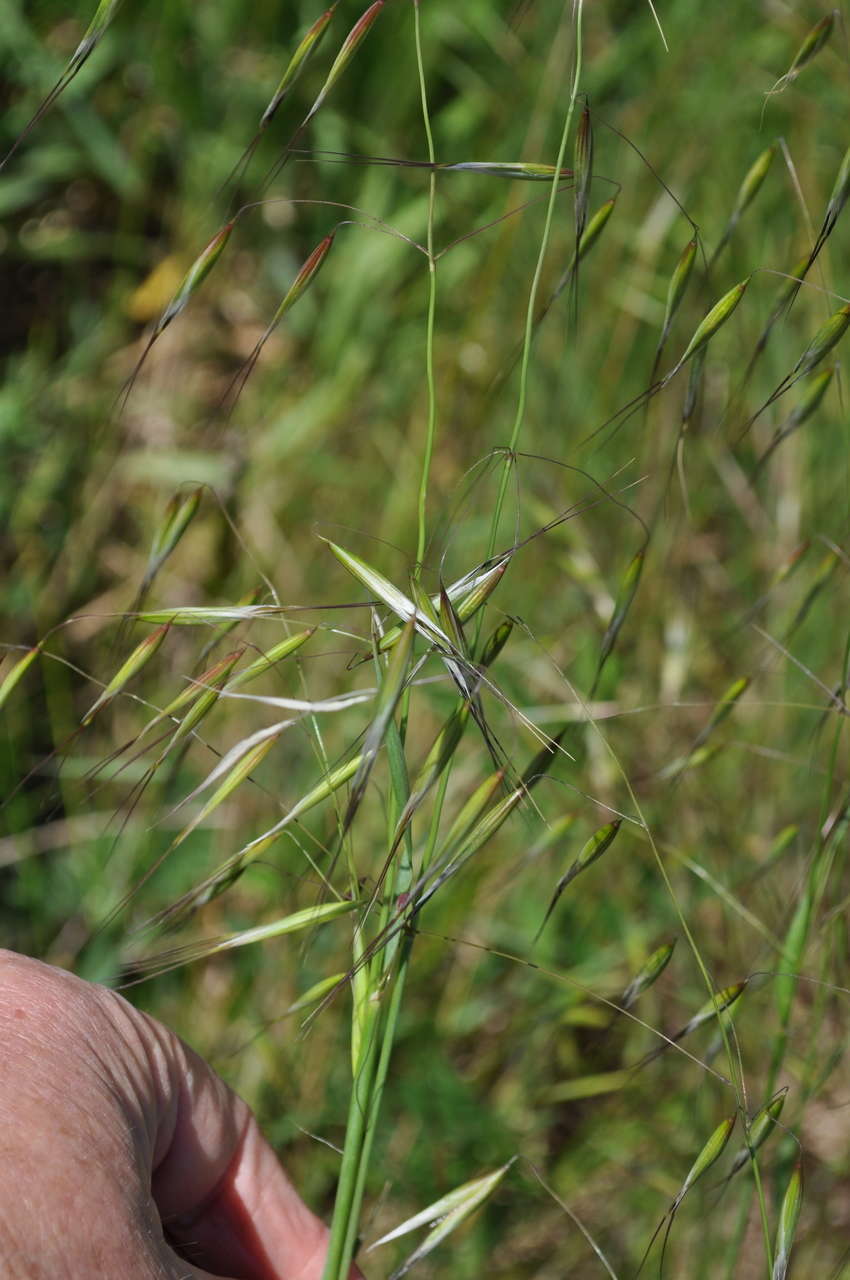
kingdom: Plantae
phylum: Tracheophyta
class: Liliopsida
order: Poales
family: Poaceae
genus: Avena
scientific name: Avena fatua
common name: Wild oat
